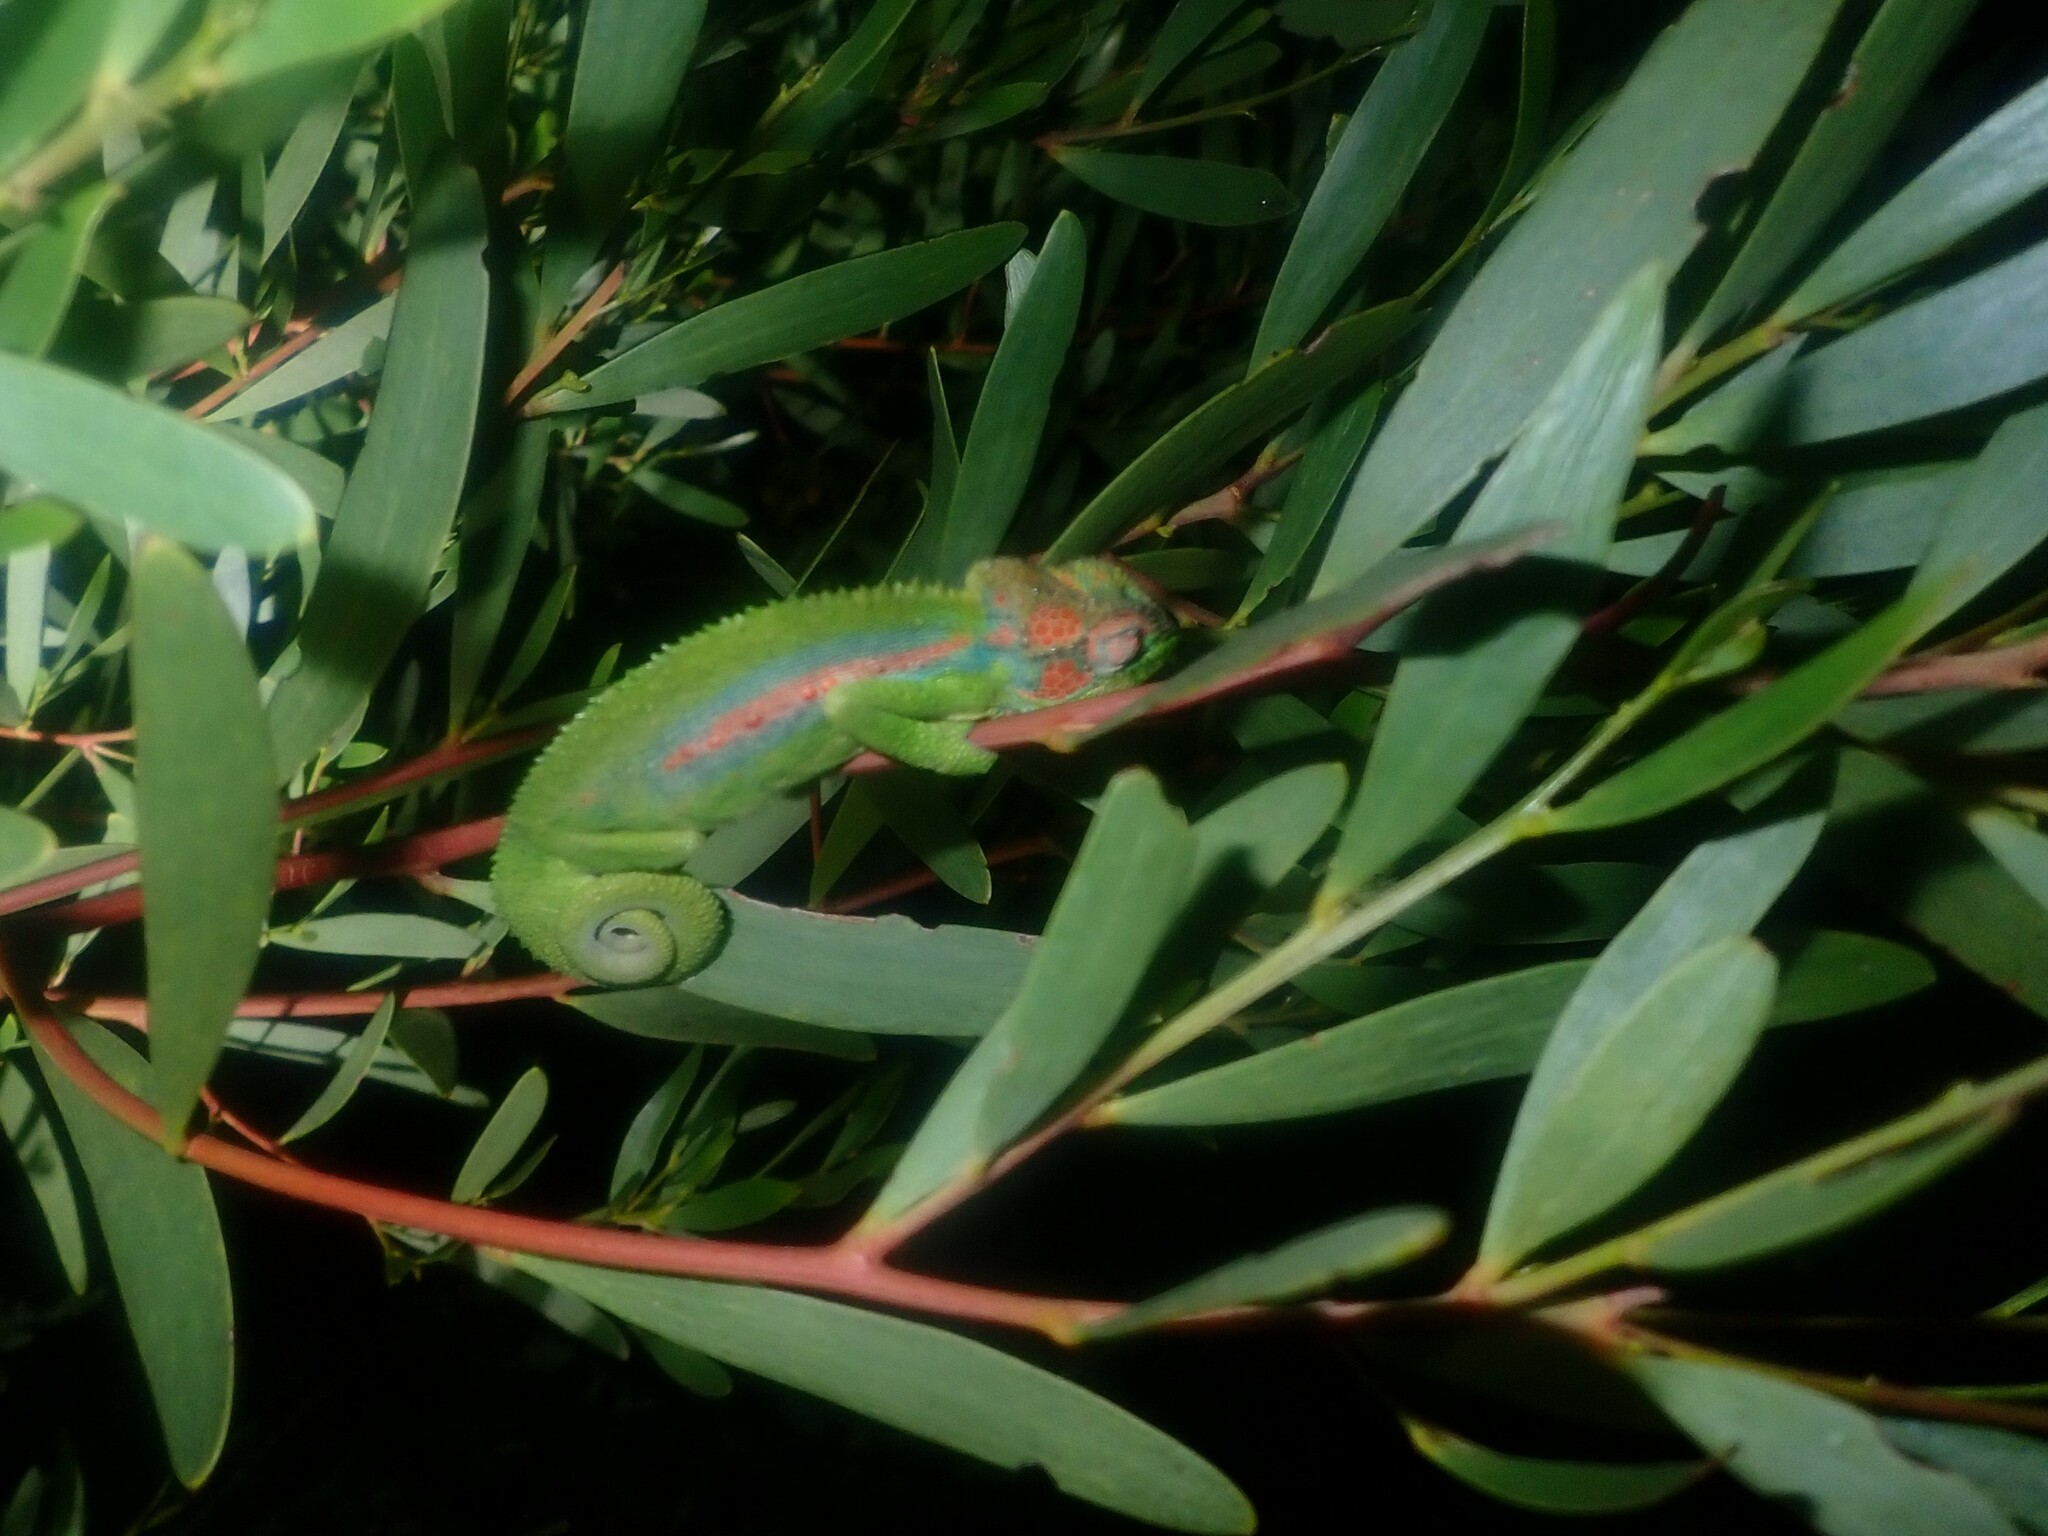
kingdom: Animalia
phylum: Chordata
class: Squamata
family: Chamaeleonidae
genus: Bradypodion
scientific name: Bradypodion pumilum
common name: Cape dwarf chameleon
